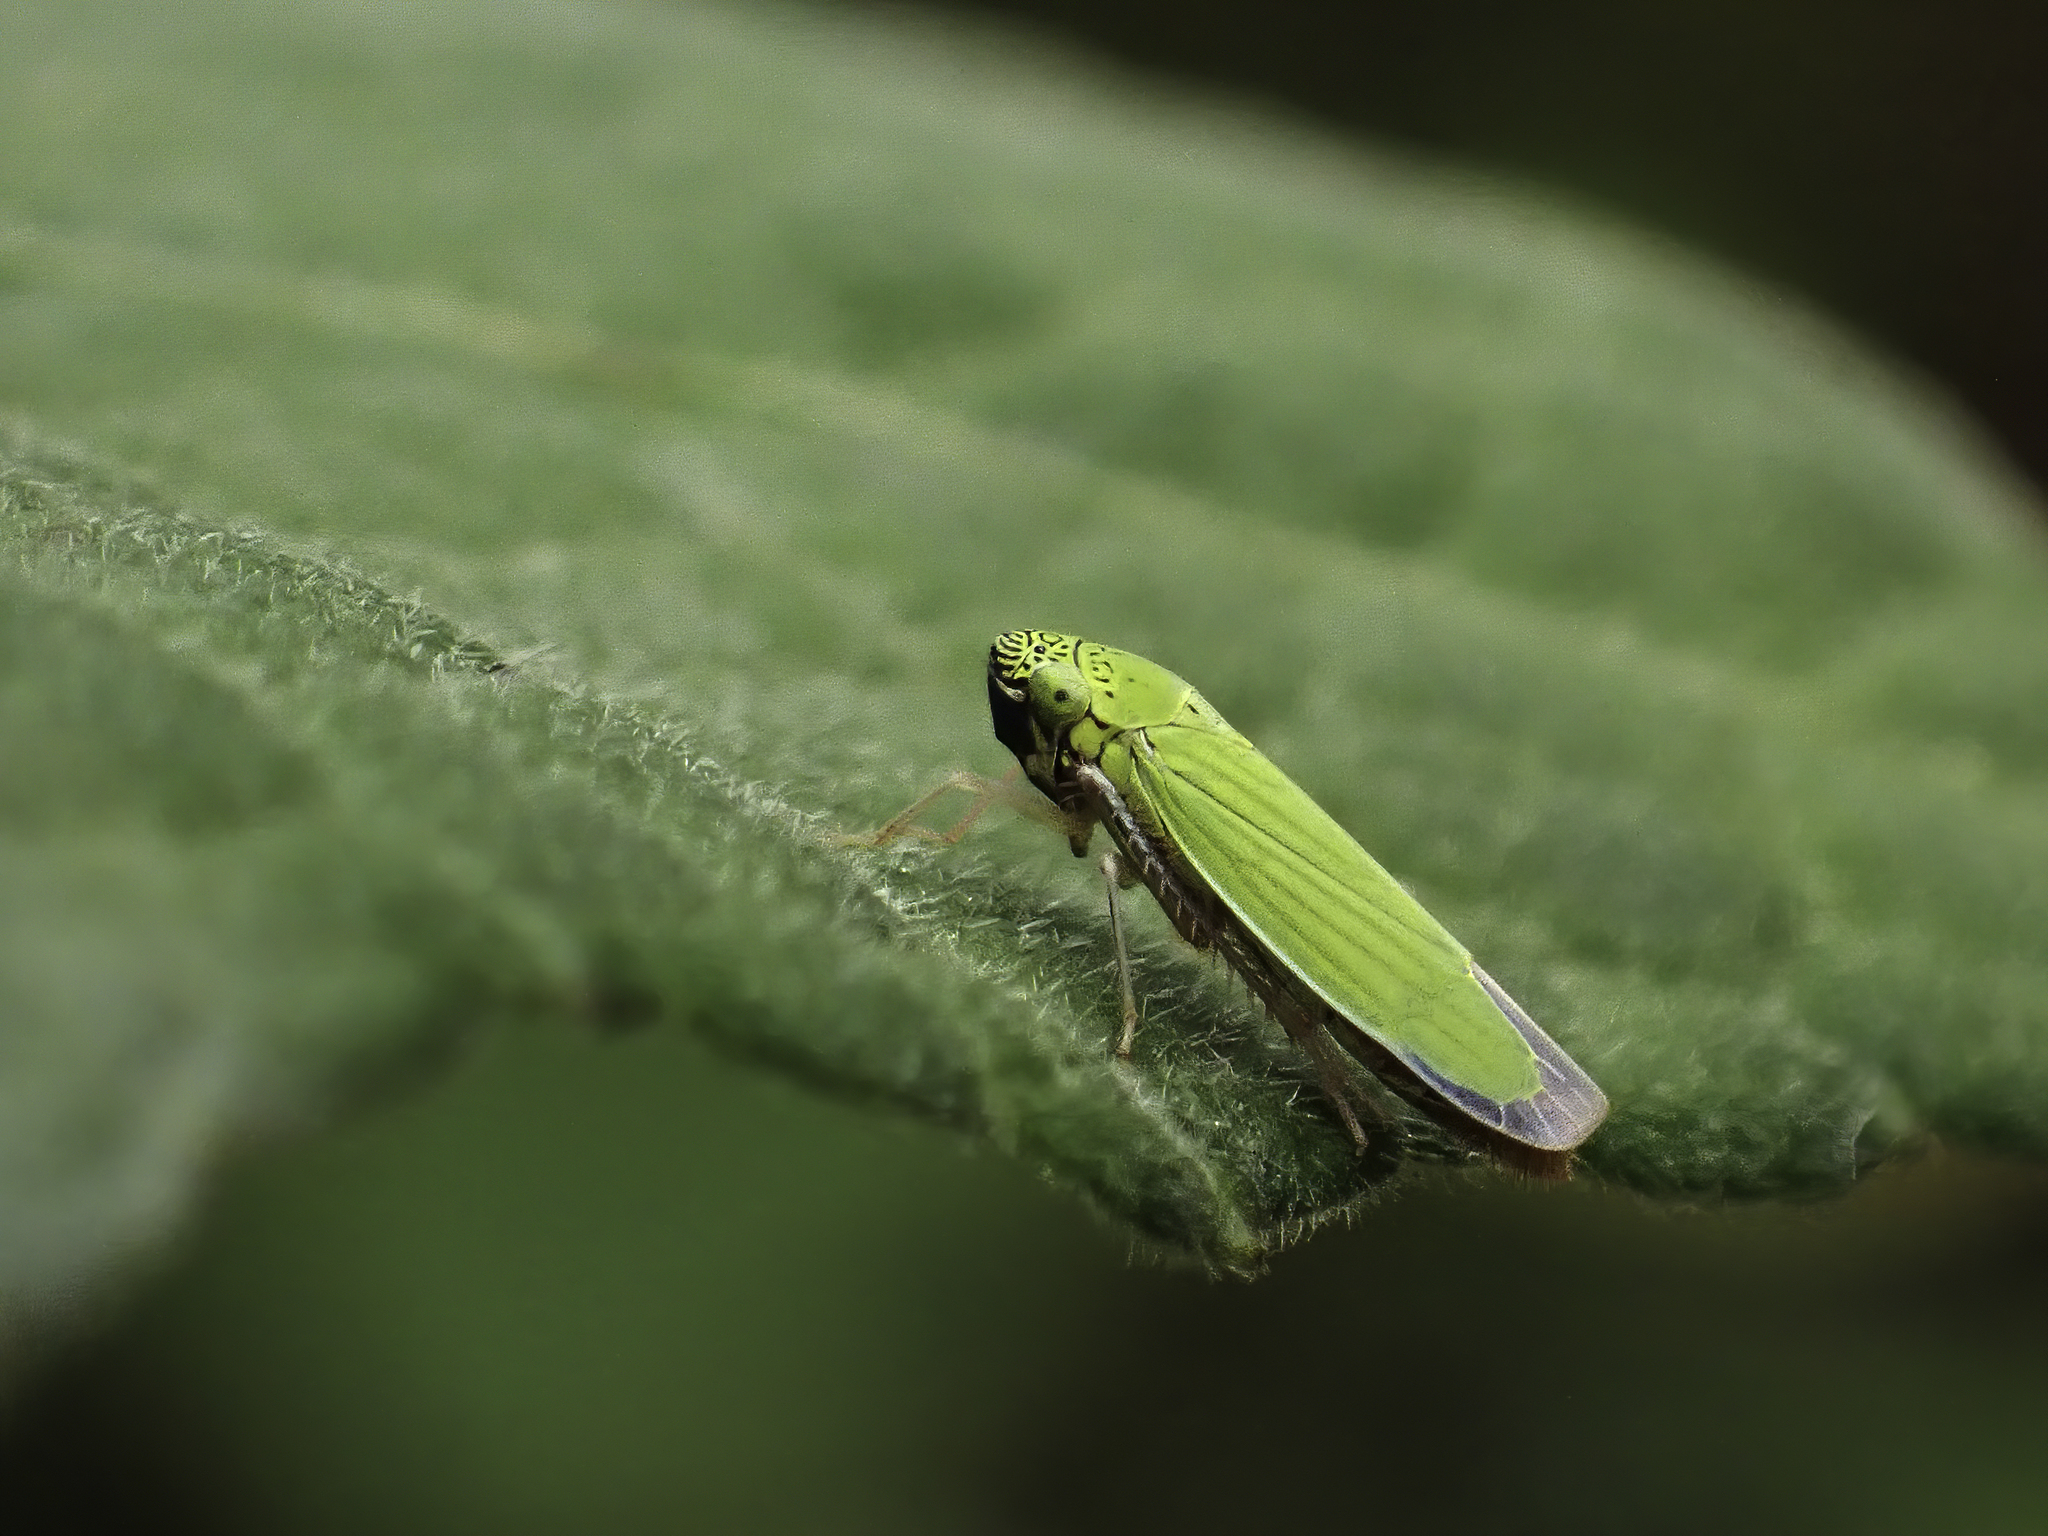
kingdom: Animalia
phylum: Arthropoda
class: Insecta
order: Hemiptera
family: Cicadellidae
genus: Hortensia
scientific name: Hortensia similis
